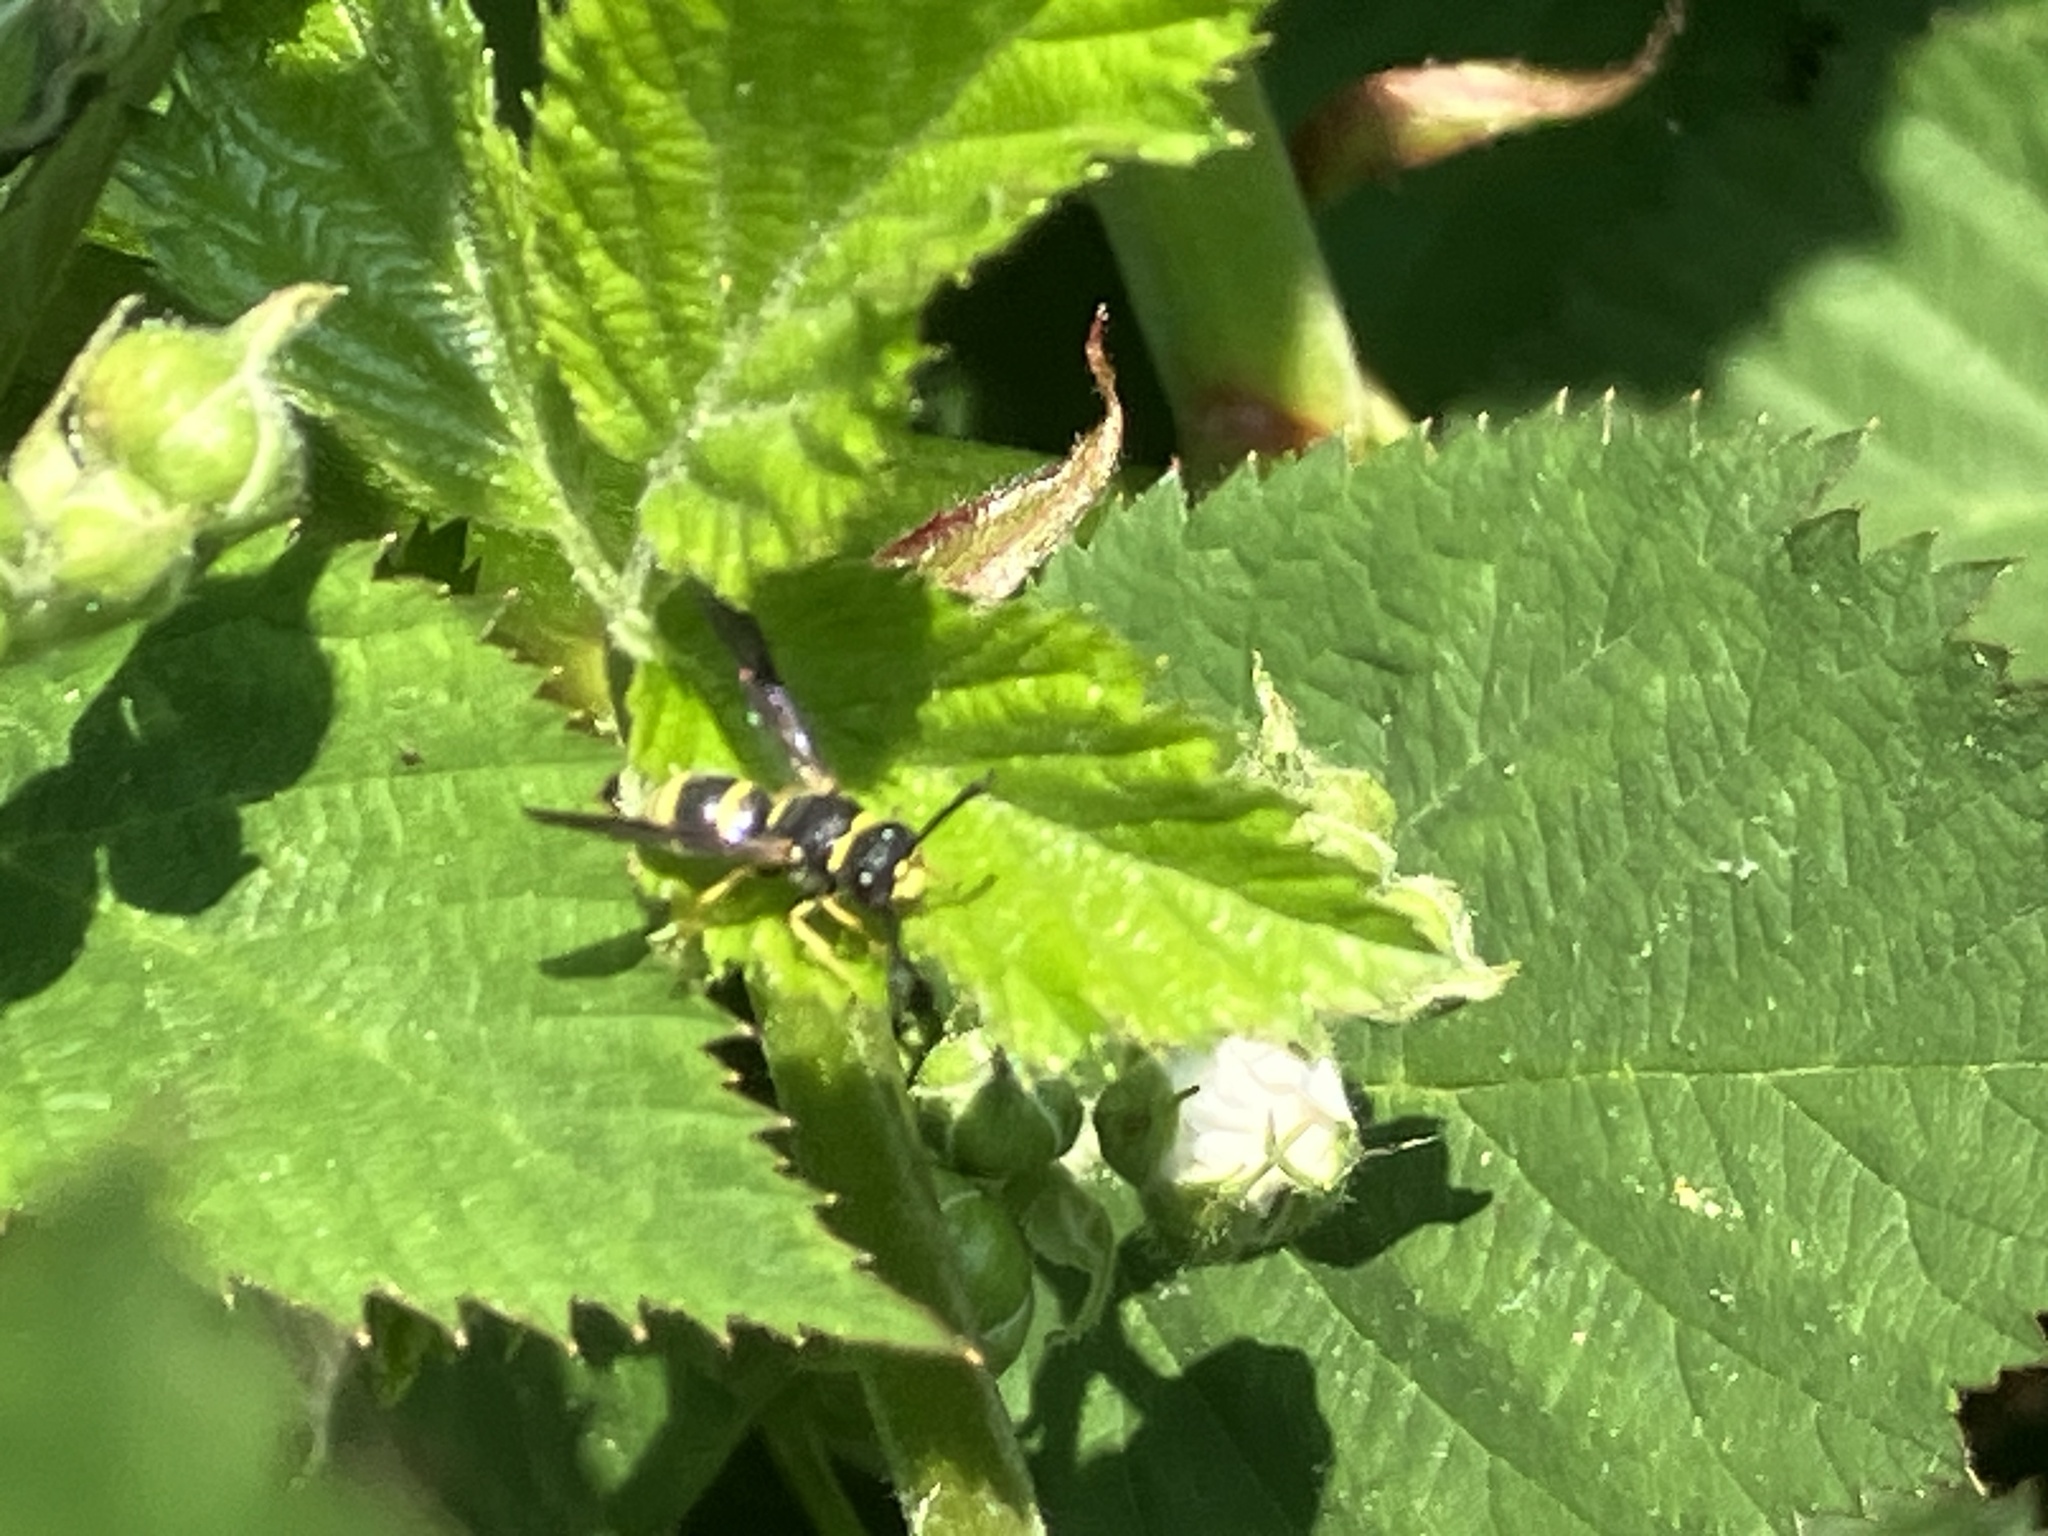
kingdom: Animalia
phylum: Arthropoda
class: Insecta
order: Hymenoptera
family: Eumenidae
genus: Euodynerus
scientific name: Euodynerus foraminatus
